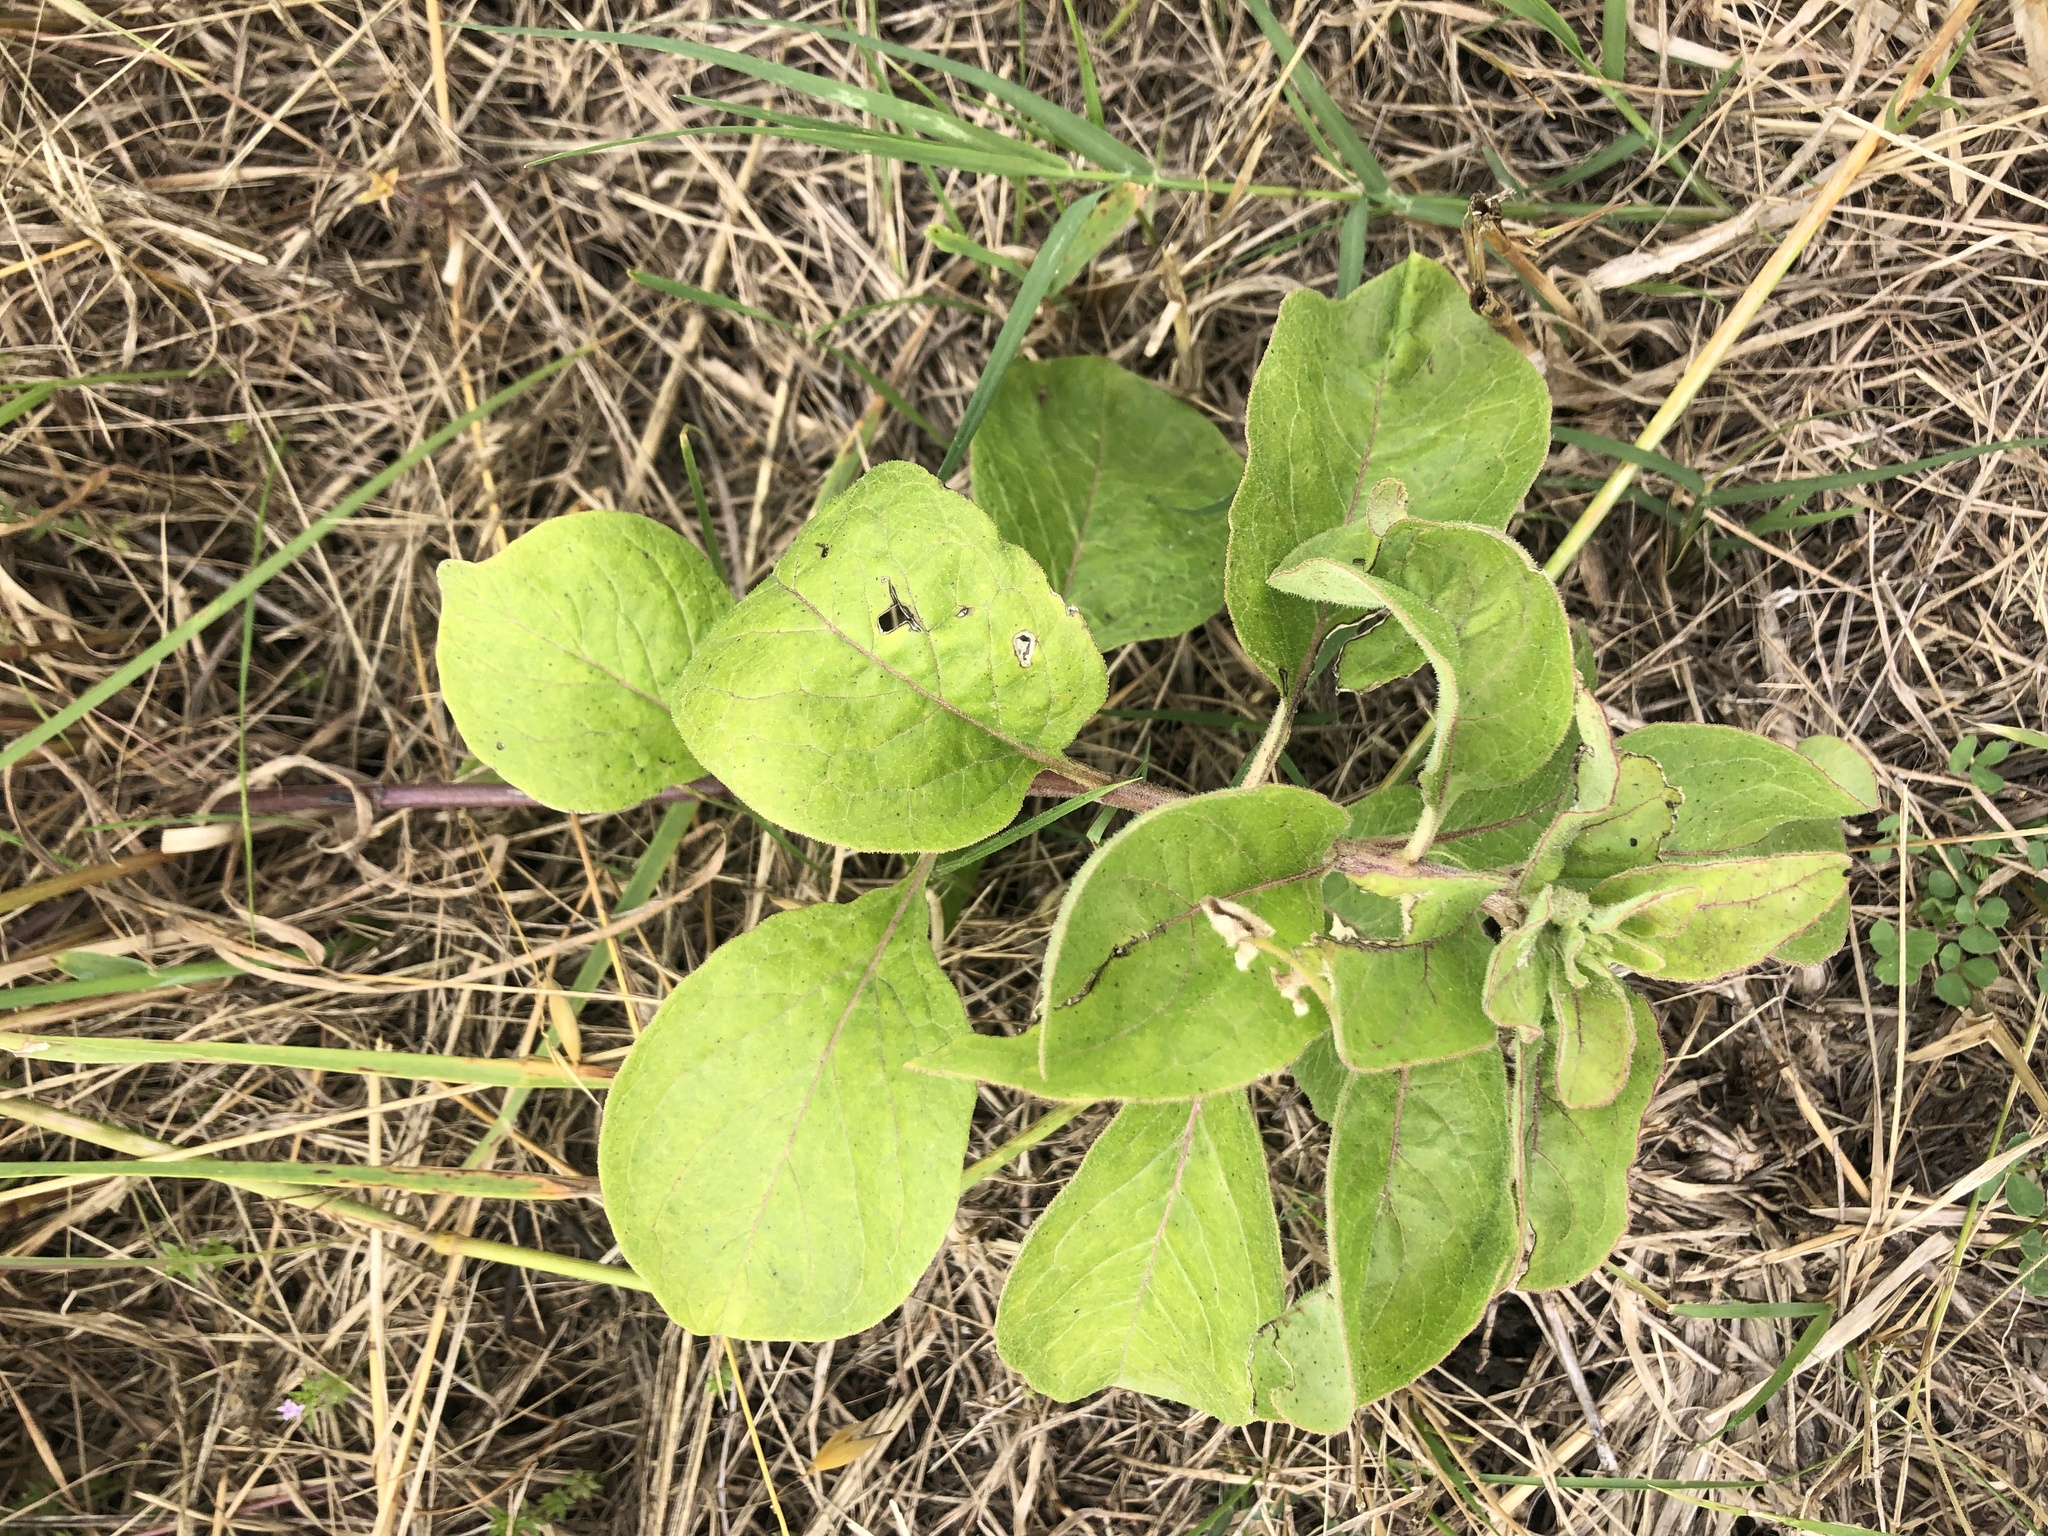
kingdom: Plantae
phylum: Tracheophyta
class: Magnoliopsida
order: Gentianales
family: Apocynaceae
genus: Asclepias
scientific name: Asclepias oenotheroides
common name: Zizotes milkweed
